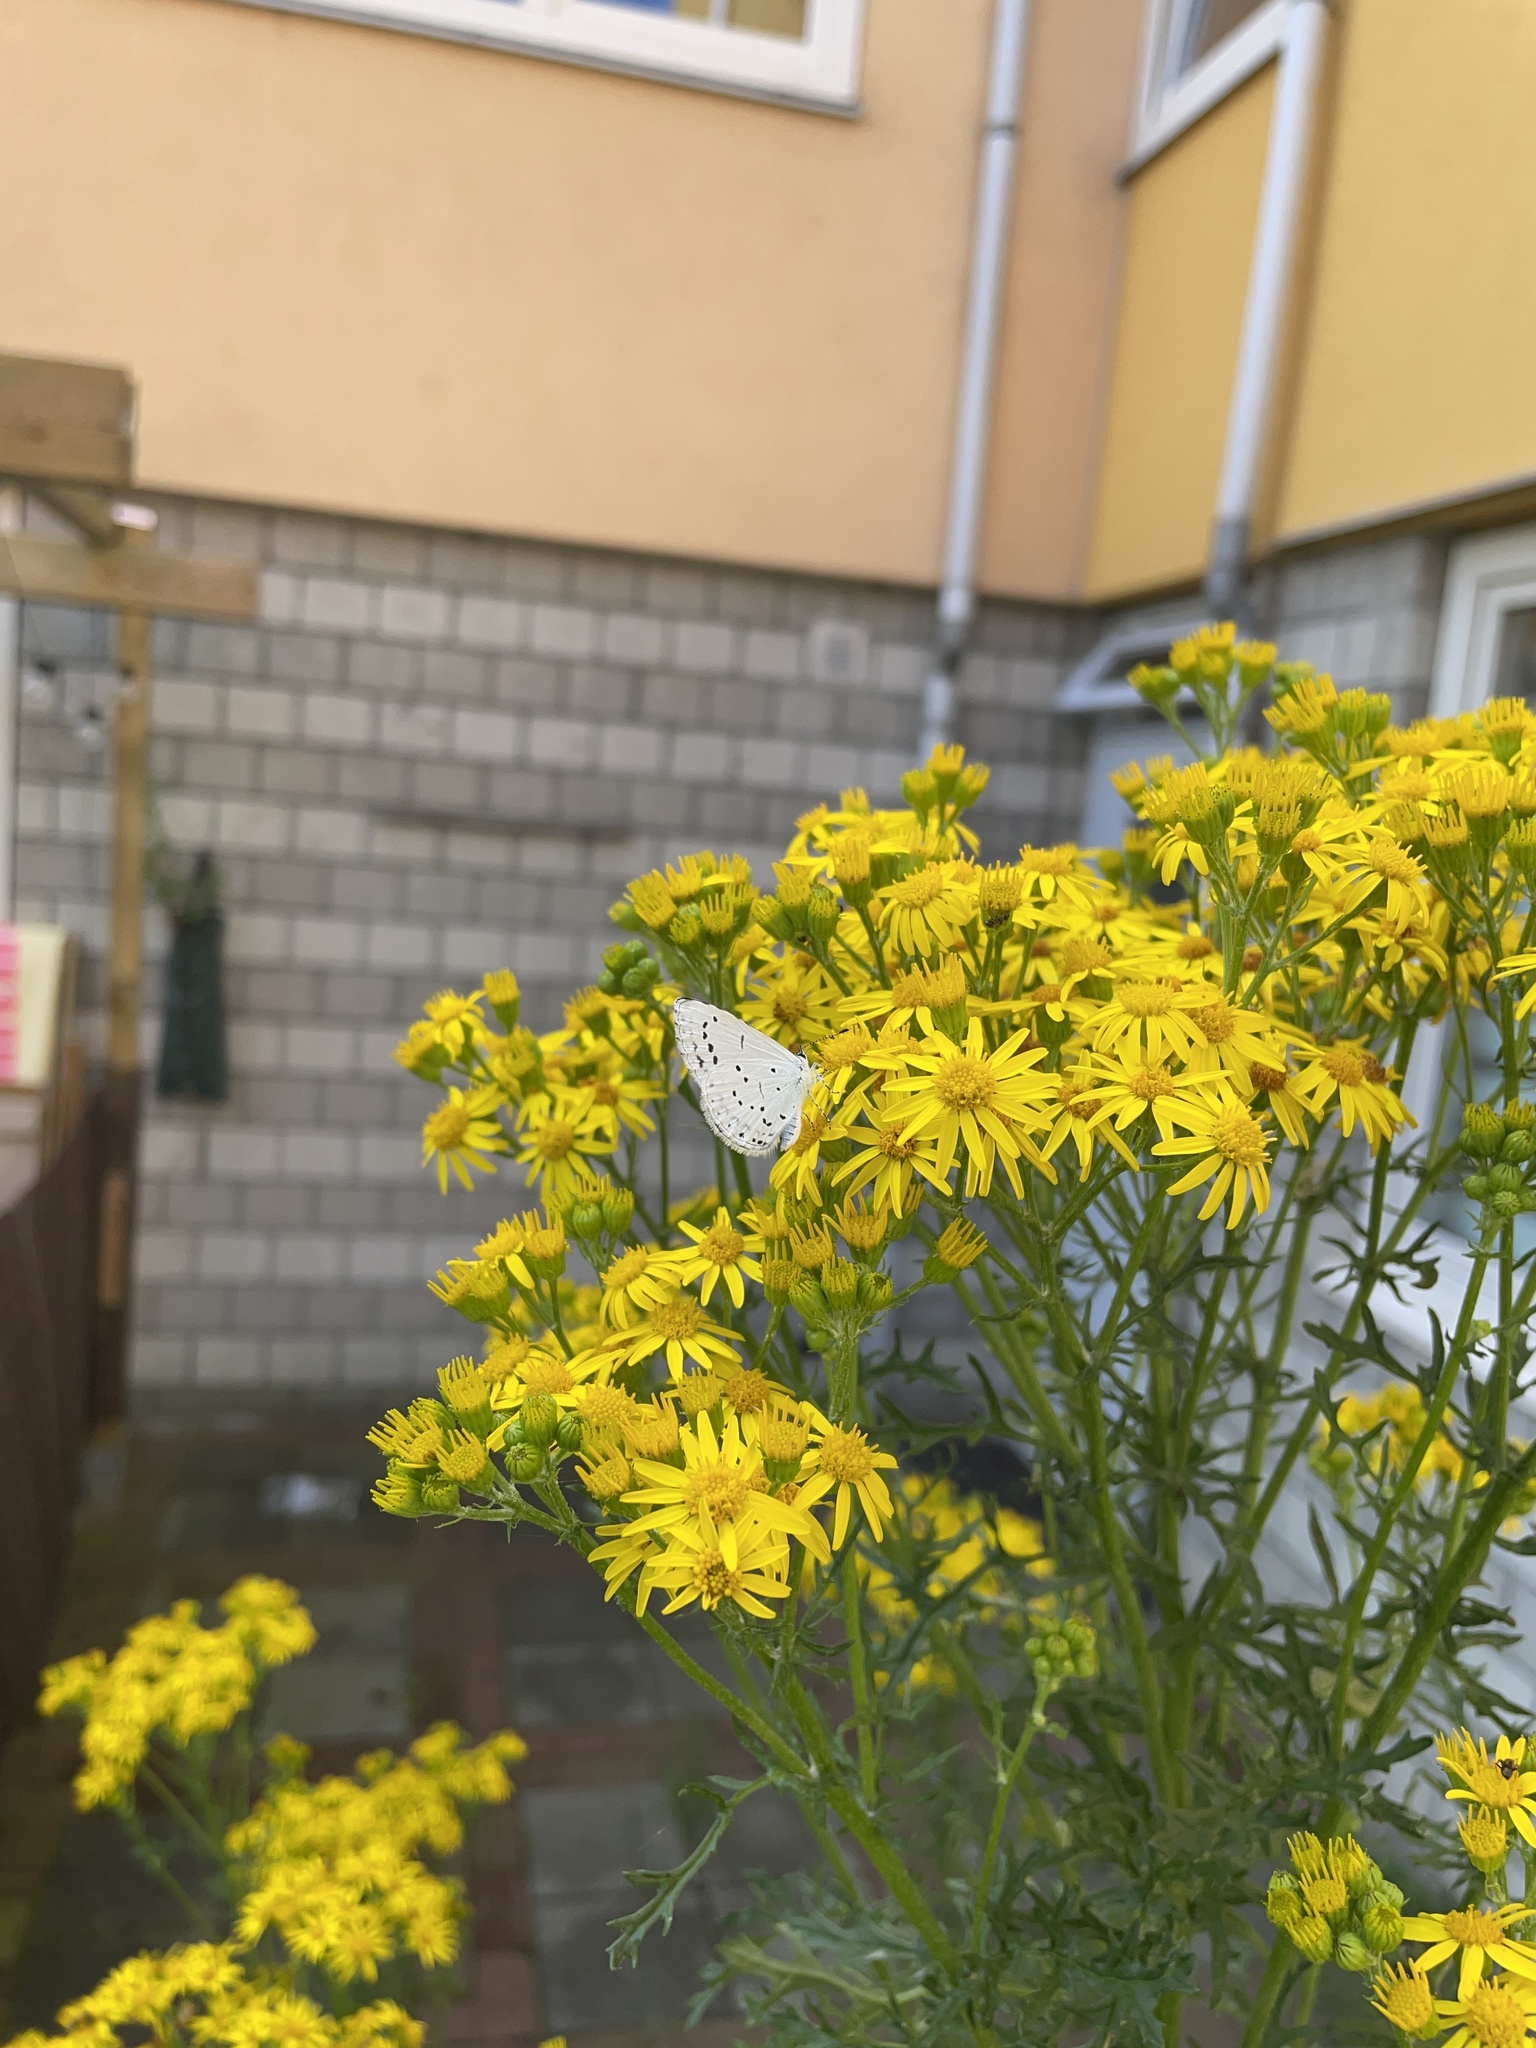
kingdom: Animalia
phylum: Arthropoda
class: Insecta
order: Lepidoptera
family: Lycaenidae
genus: Celastrina
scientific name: Celastrina argiolus
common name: Holly blue
